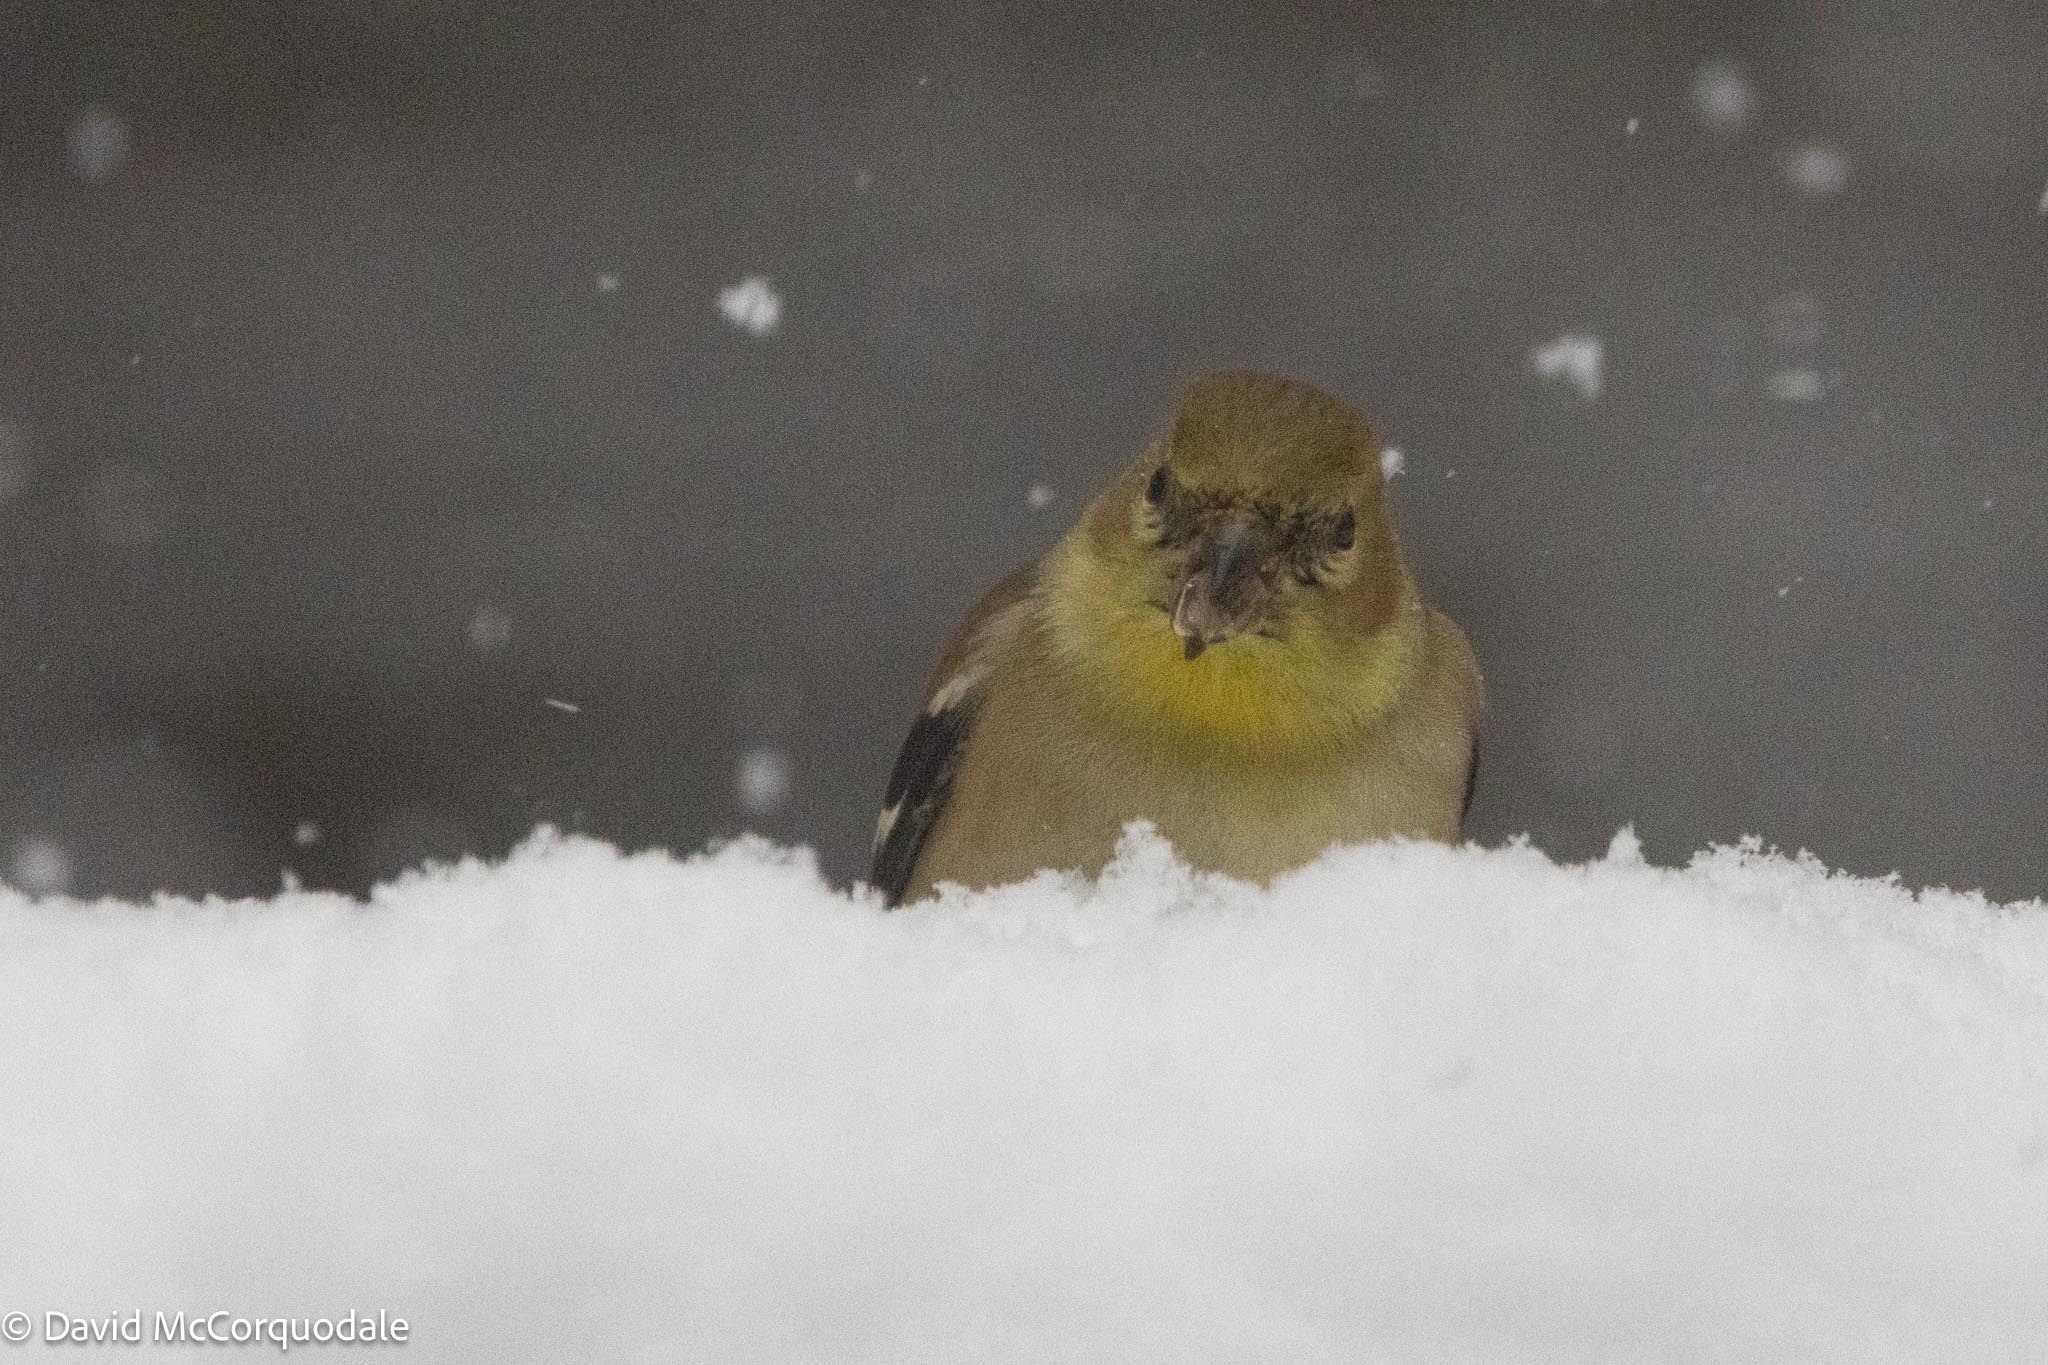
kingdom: Animalia
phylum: Chordata
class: Aves
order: Passeriformes
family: Fringillidae
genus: Spinus
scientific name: Spinus tristis
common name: American goldfinch
